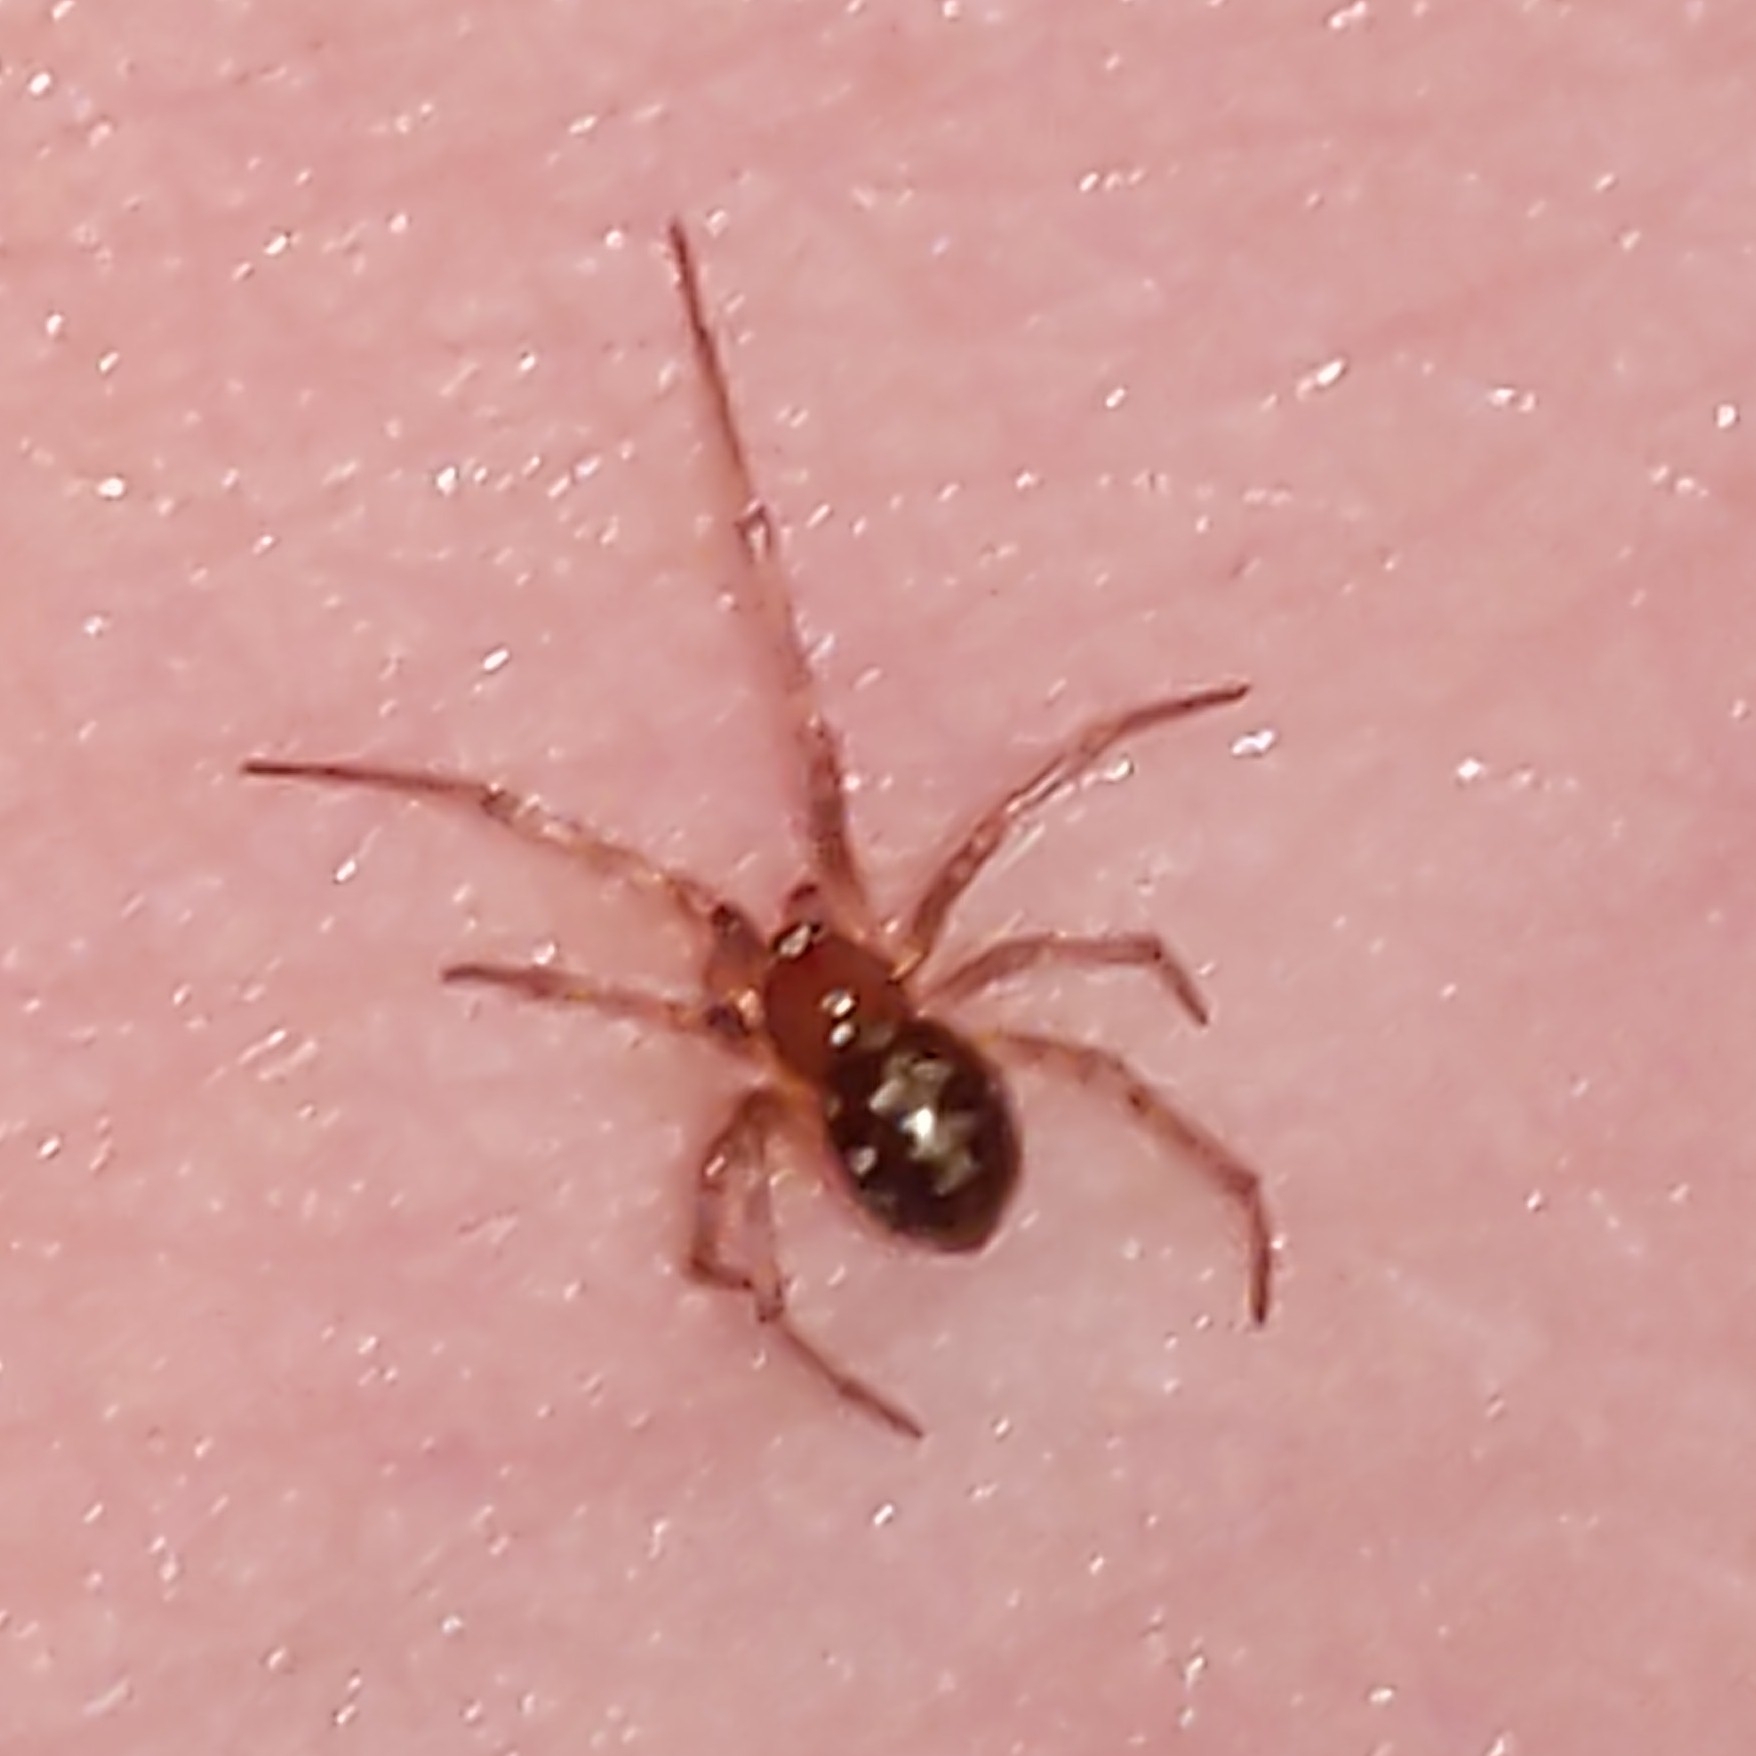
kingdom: Animalia
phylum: Arthropoda
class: Arachnida
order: Araneae
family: Theridiidae
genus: Steatoda
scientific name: Steatoda triangulosa
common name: Triangulate bud spider
